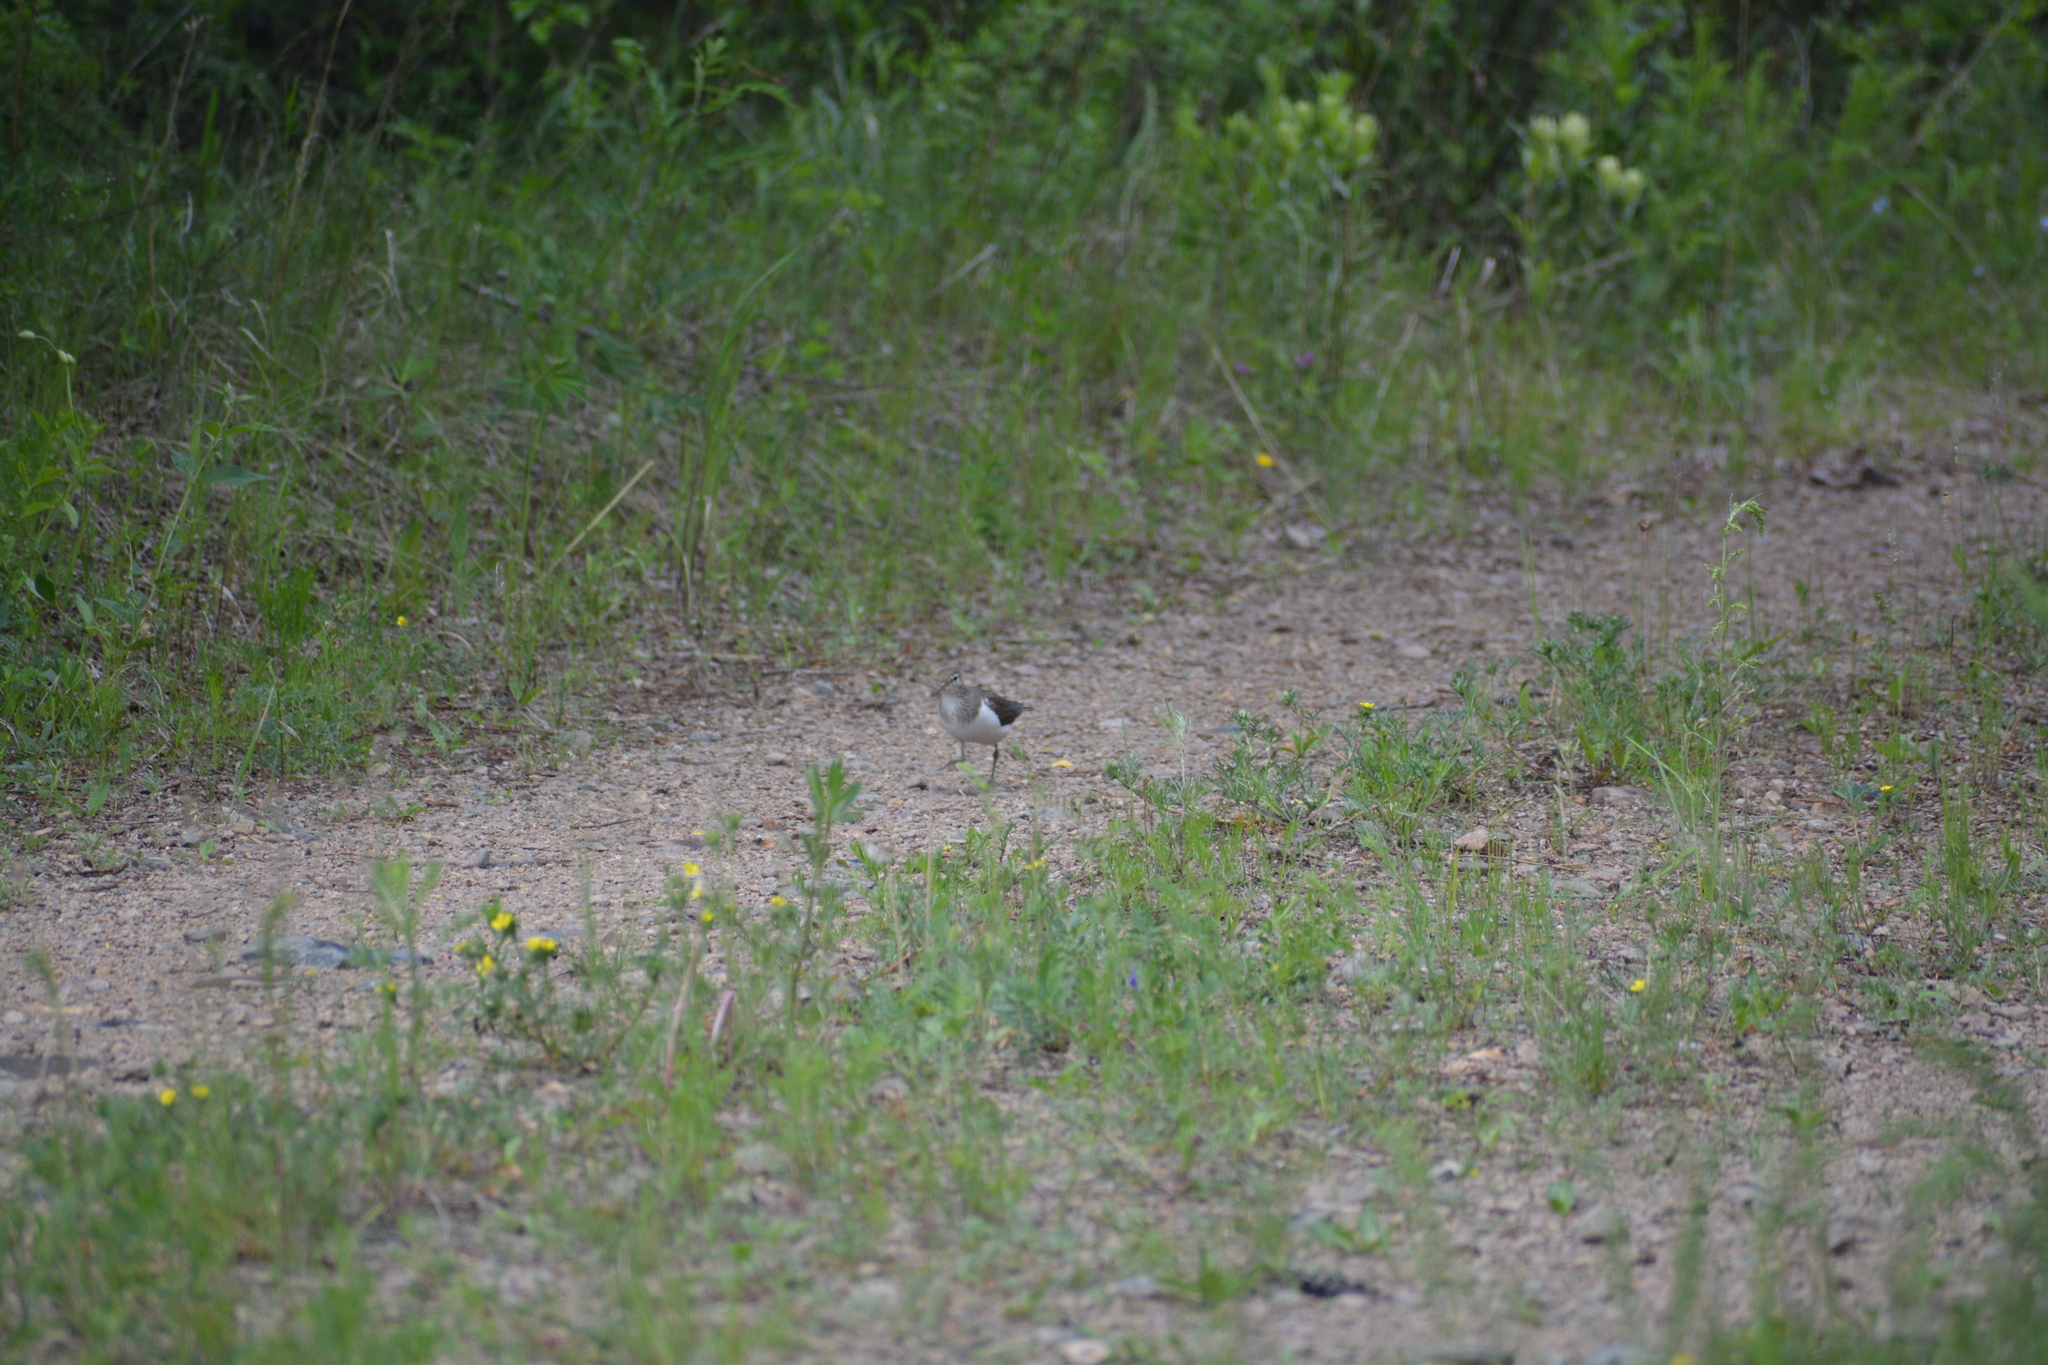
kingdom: Animalia
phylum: Chordata
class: Aves
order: Charadriiformes
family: Scolopacidae
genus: Actitis
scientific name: Actitis hypoleucos
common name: Common sandpiper
